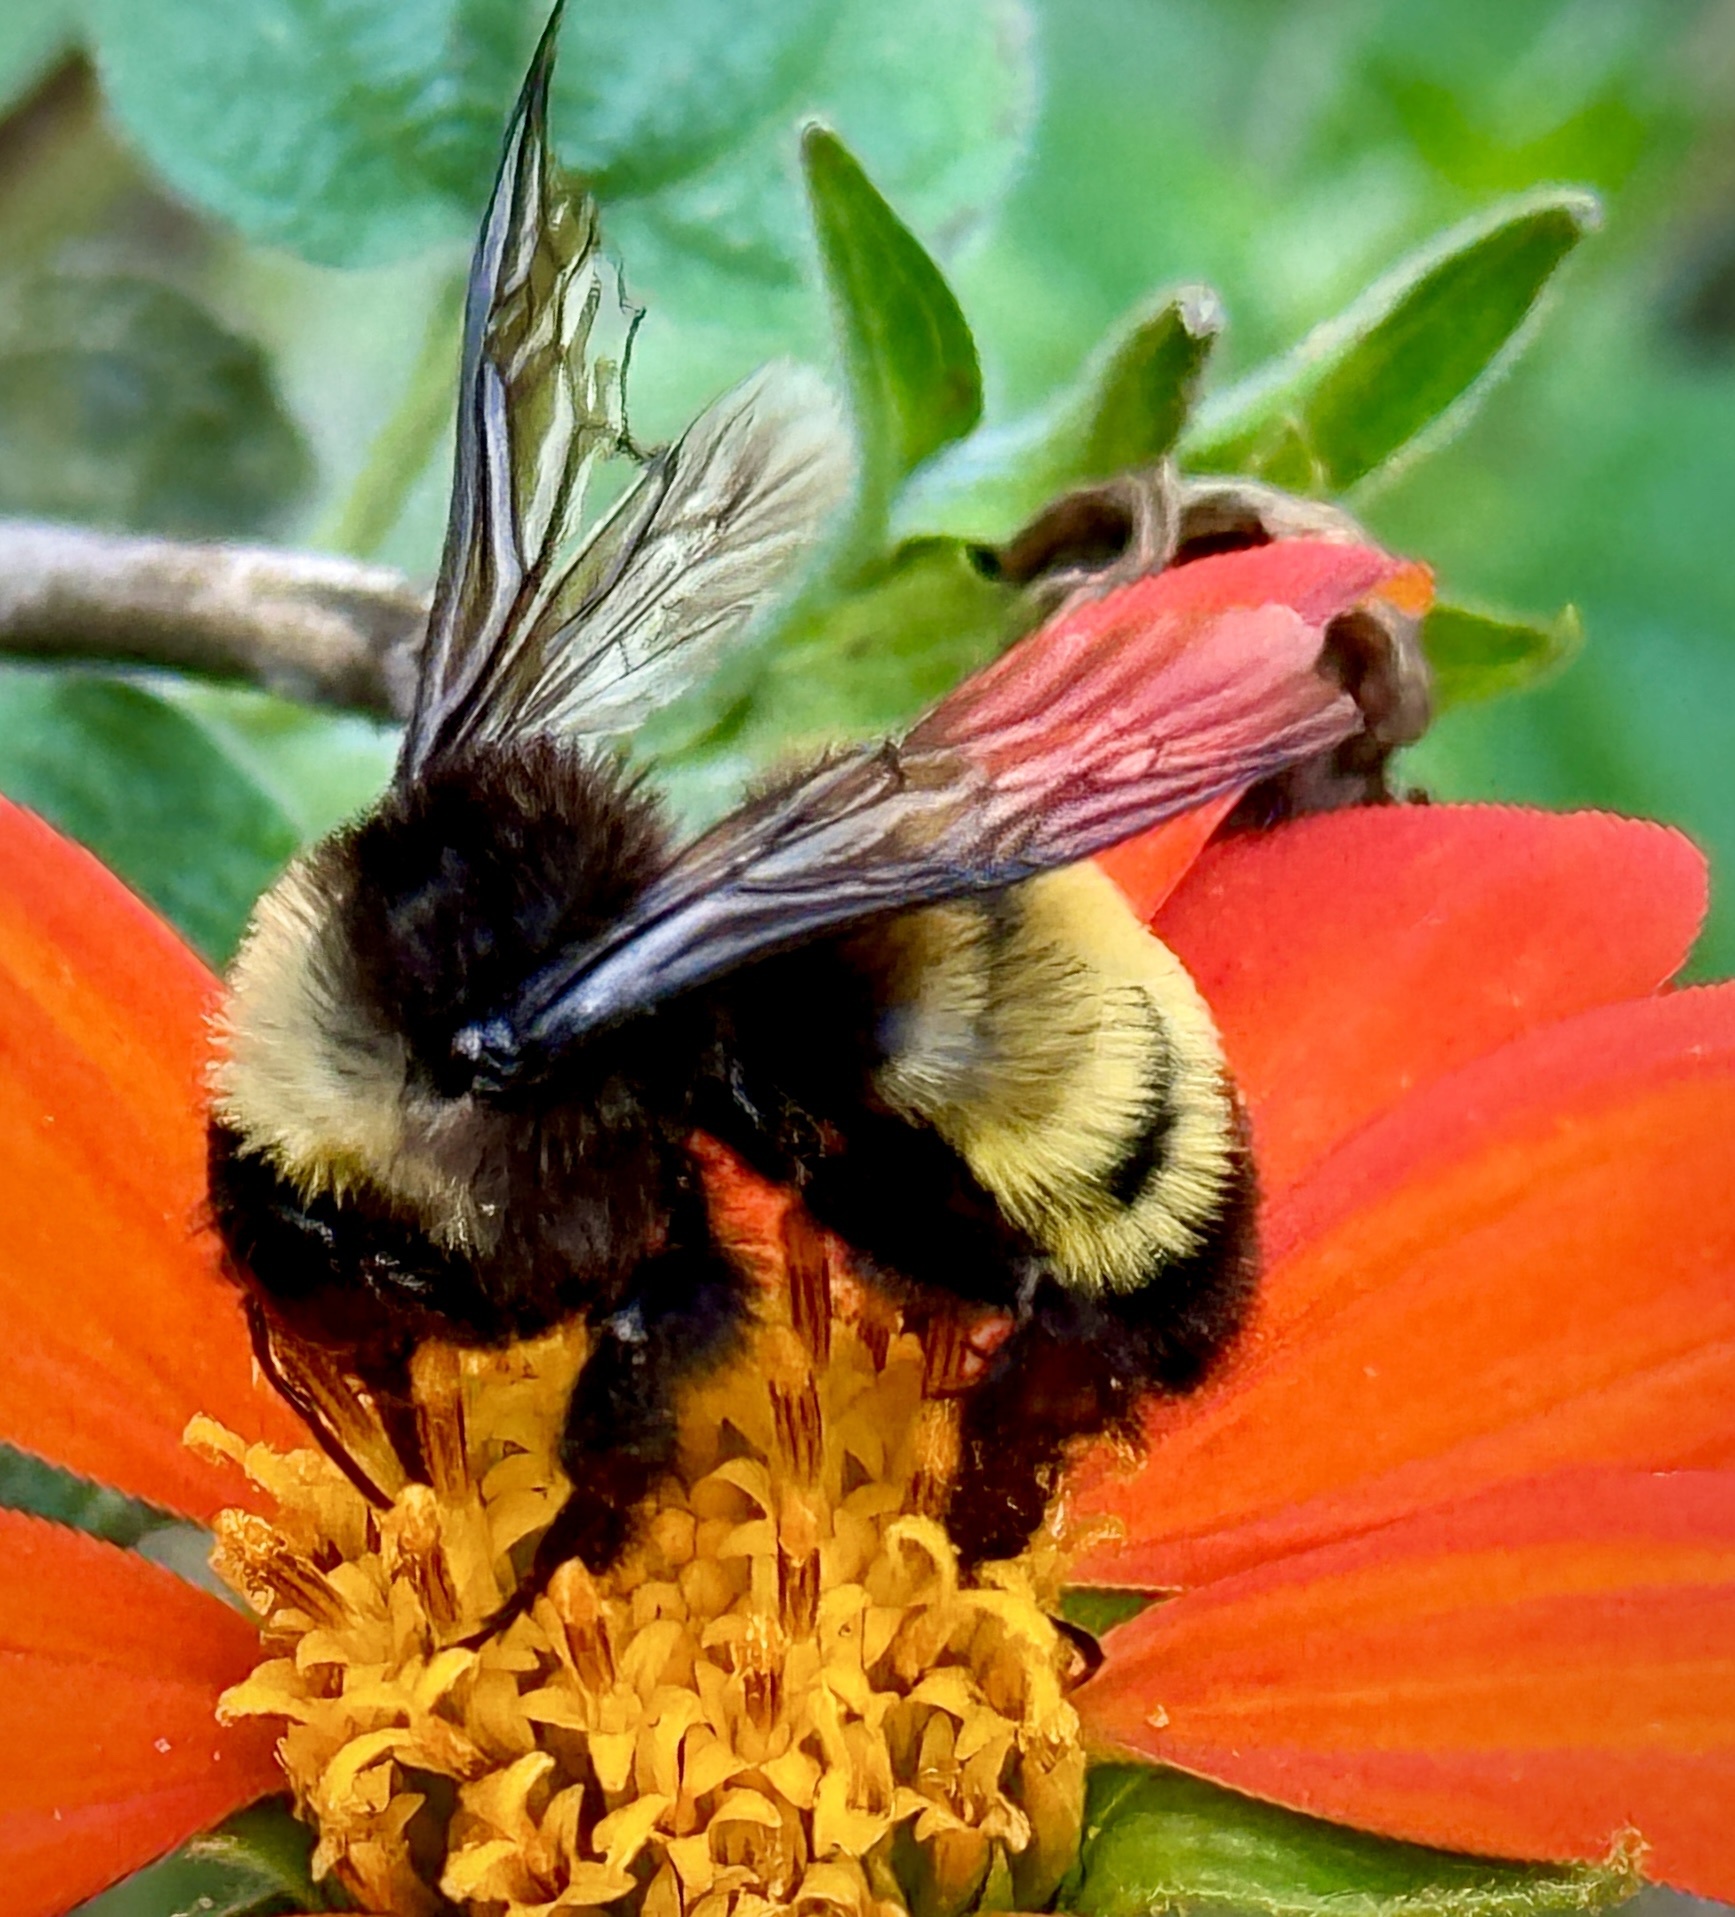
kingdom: Animalia
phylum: Arthropoda
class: Insecta
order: Hymenoptera
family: Apidae
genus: Bombus
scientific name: Bombus pensylvanicus
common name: Bumble bee
